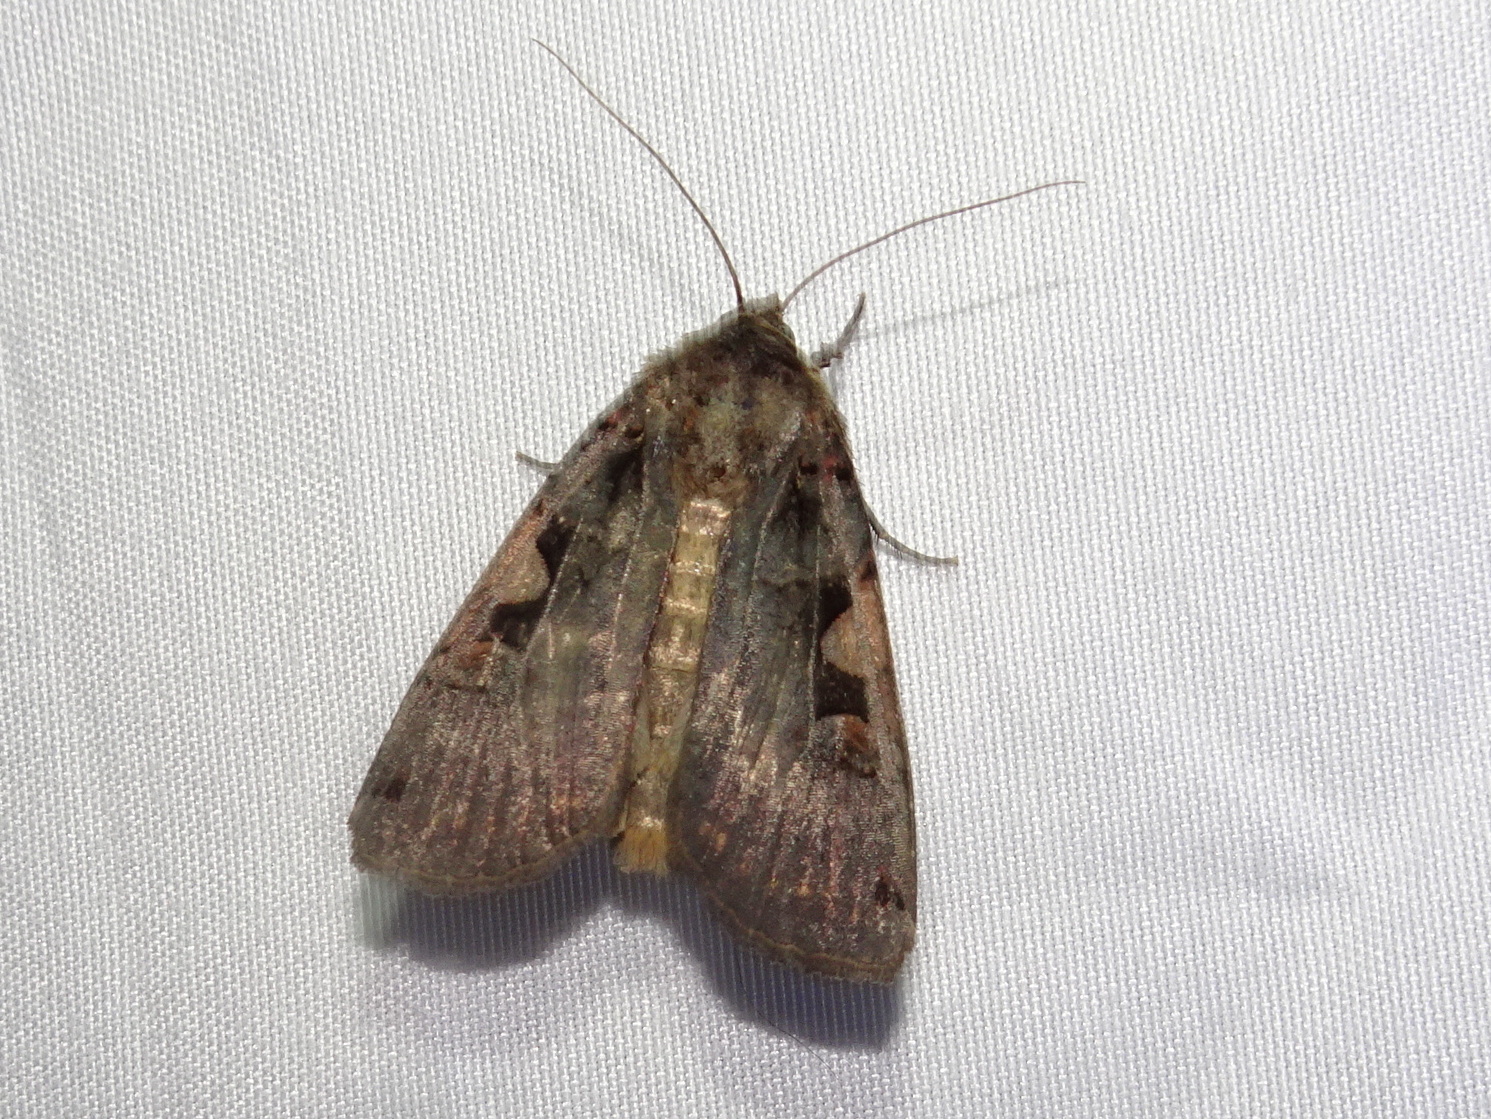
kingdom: Animalia
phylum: Arthropoda
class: Insecta
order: Lepidoptera
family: Noctuidae
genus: Xestia
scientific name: Xestia dolosa
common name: Cutworm moth
